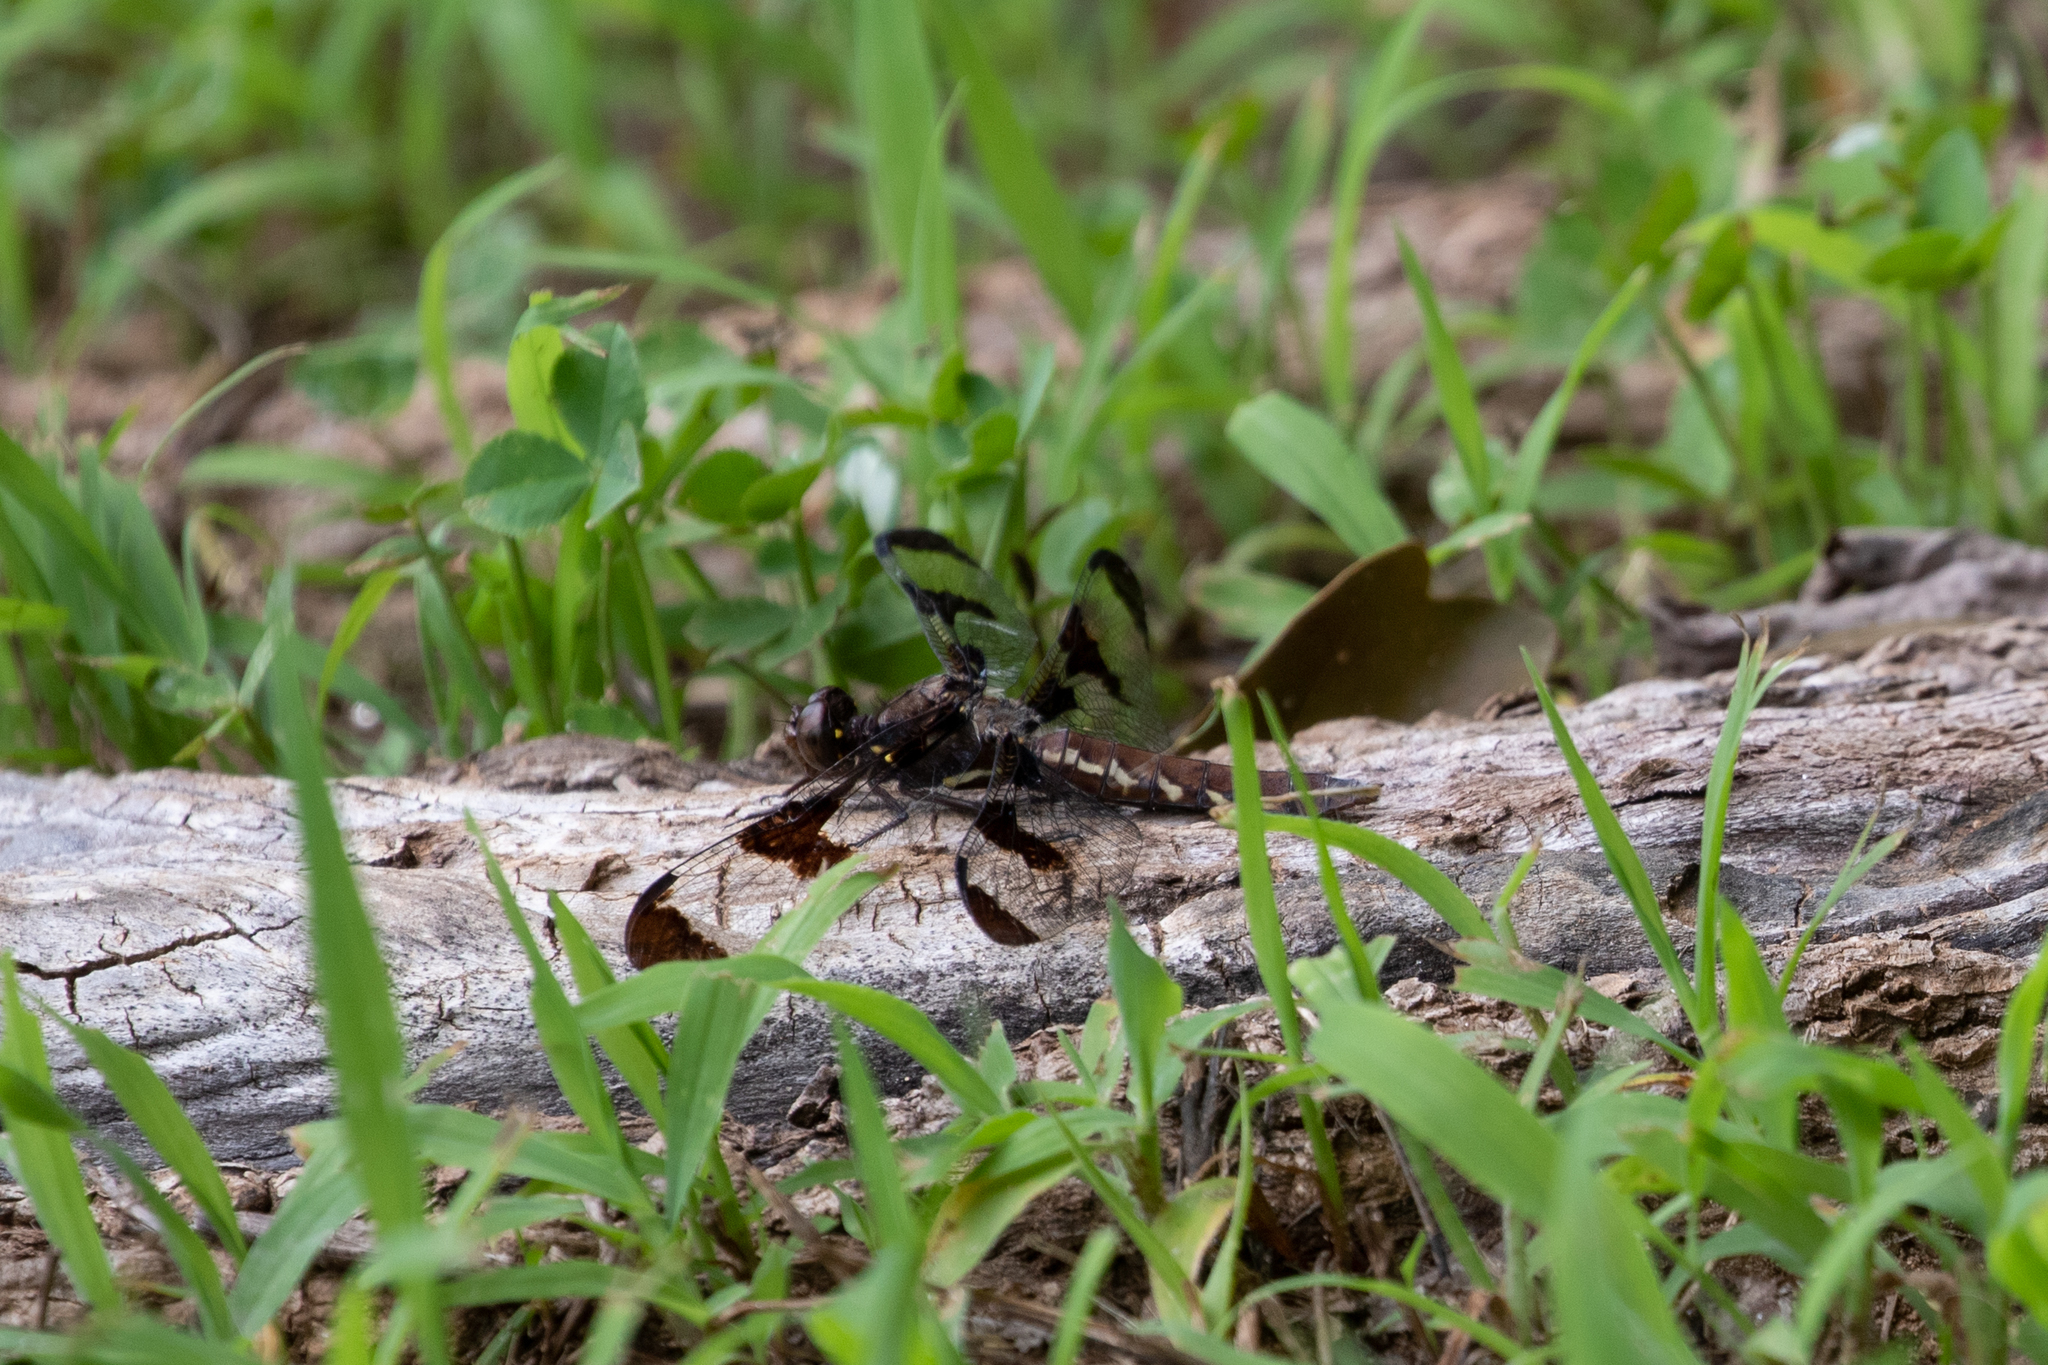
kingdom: Animalia
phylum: Arthropoda
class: Insecta
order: Odonata
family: Libellulidae
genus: Plathemis
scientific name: Plathemis lydia
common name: Common whitetail
